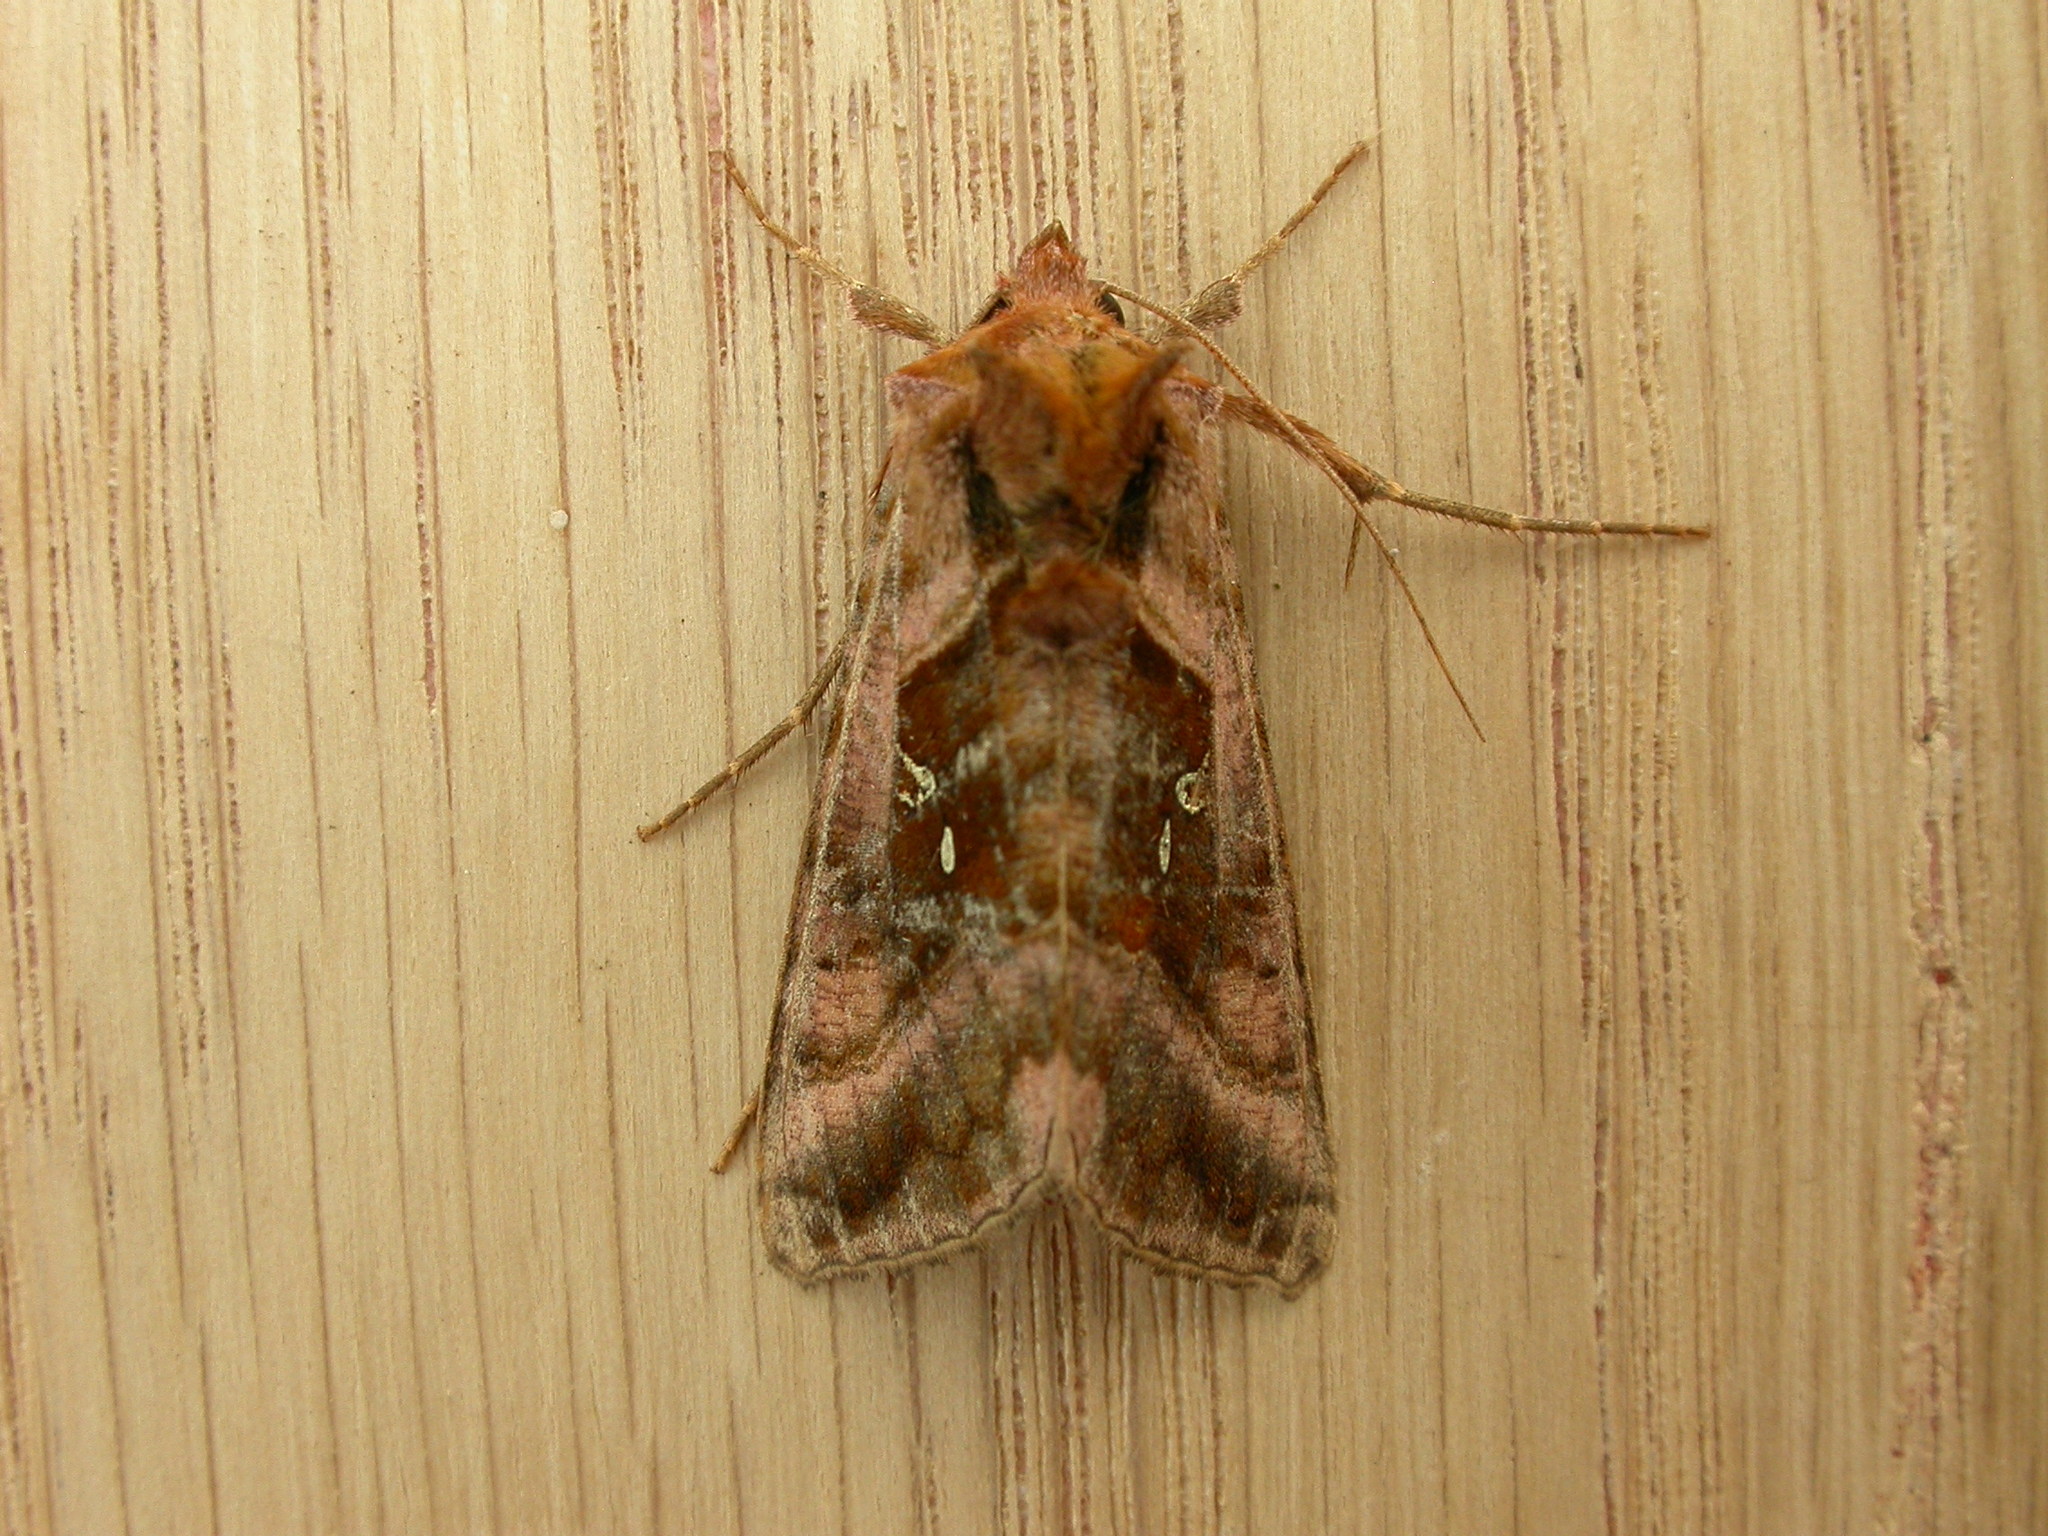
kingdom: Animalia
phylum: Arthropoda
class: Insecta
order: Lepidoptera
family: Noctuidae
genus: Autographa
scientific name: Autographa jota
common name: Plain golden y
